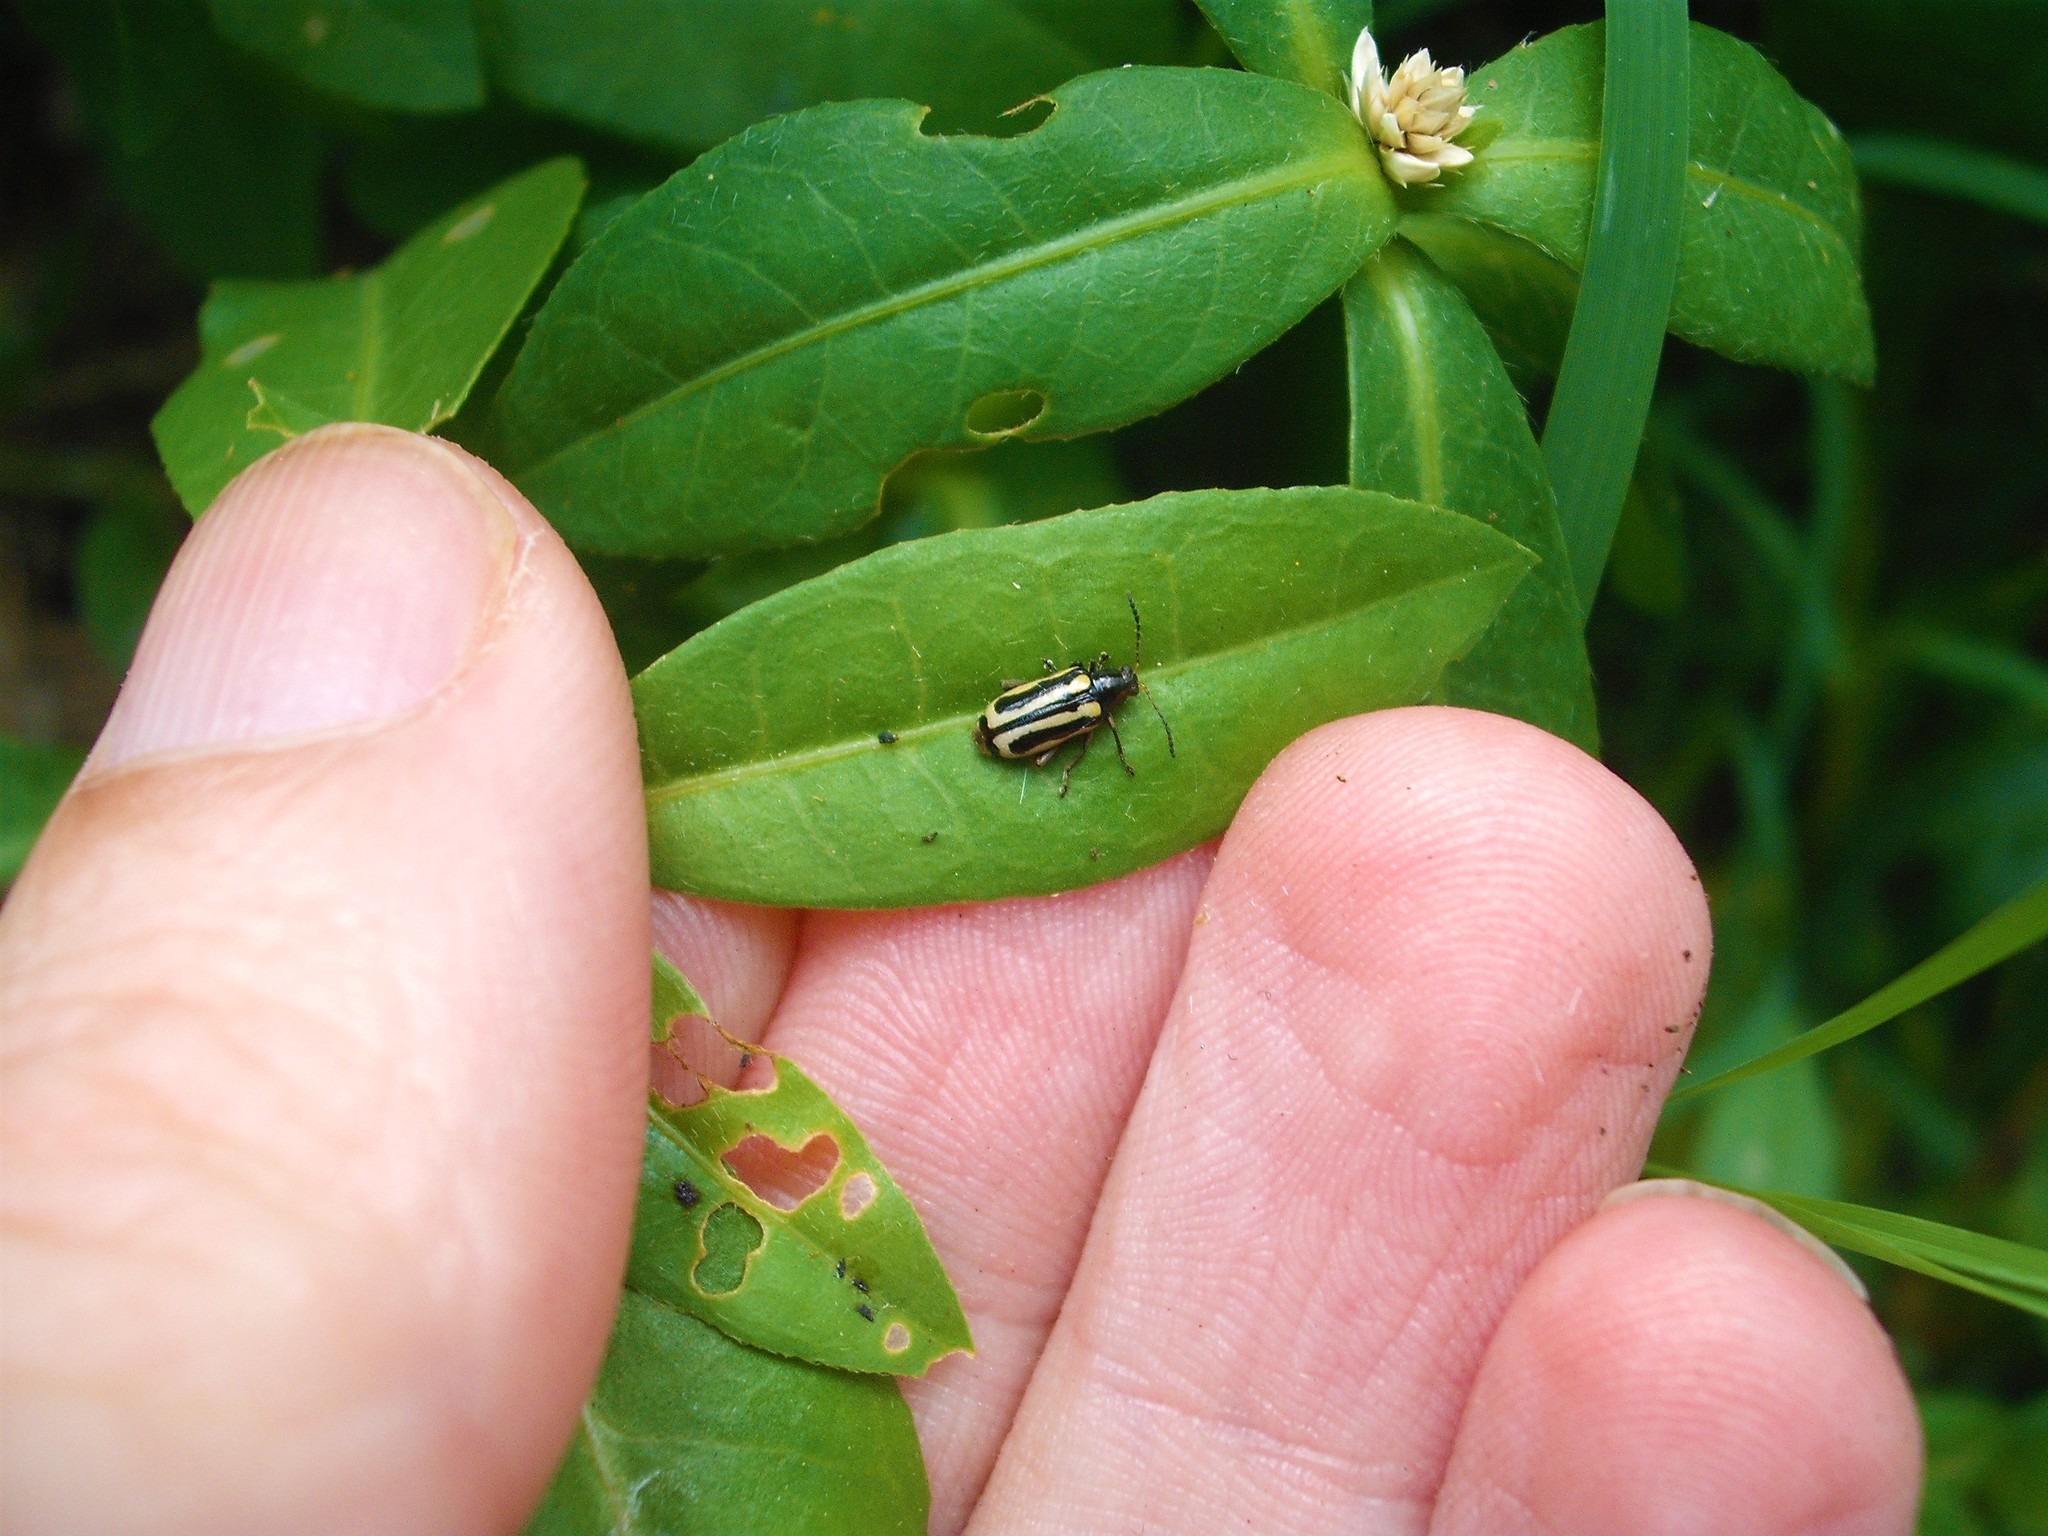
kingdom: Animalia
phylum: Arthropoda
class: Insecta
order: Coleoptera
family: Chrysomelidae
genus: Agasicles
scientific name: Agasicles hygrophila
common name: Alligatorweed flea beetle
